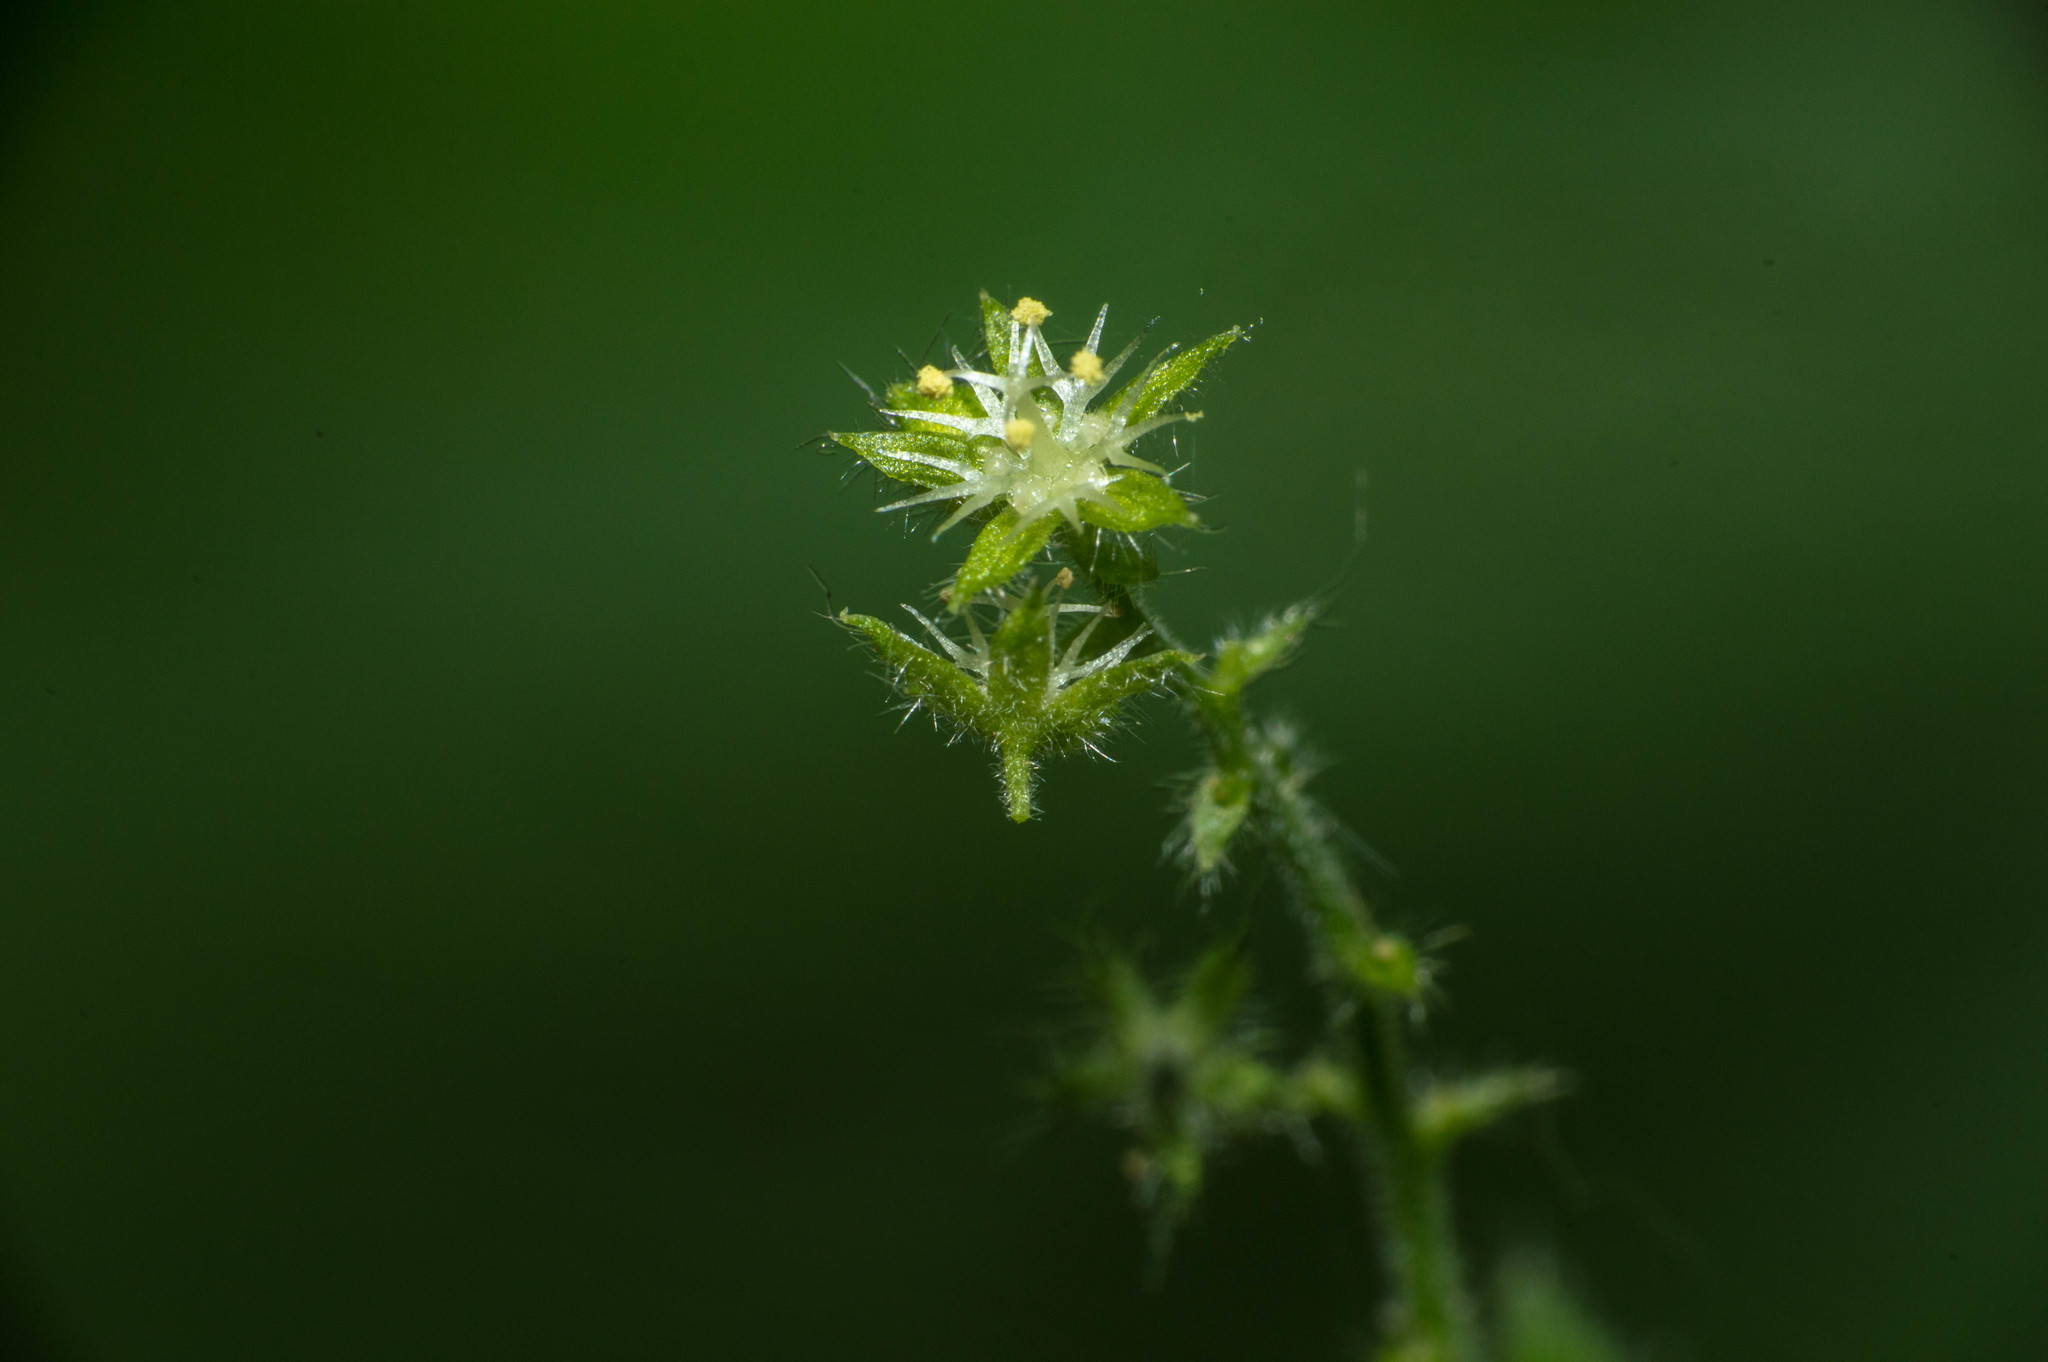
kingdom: Plantae
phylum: Tracheophyta
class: Magnoliopsida
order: Malpighiales
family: Euphorbiaceae
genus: Chiropetalum
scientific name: Chiropetalum griseum
